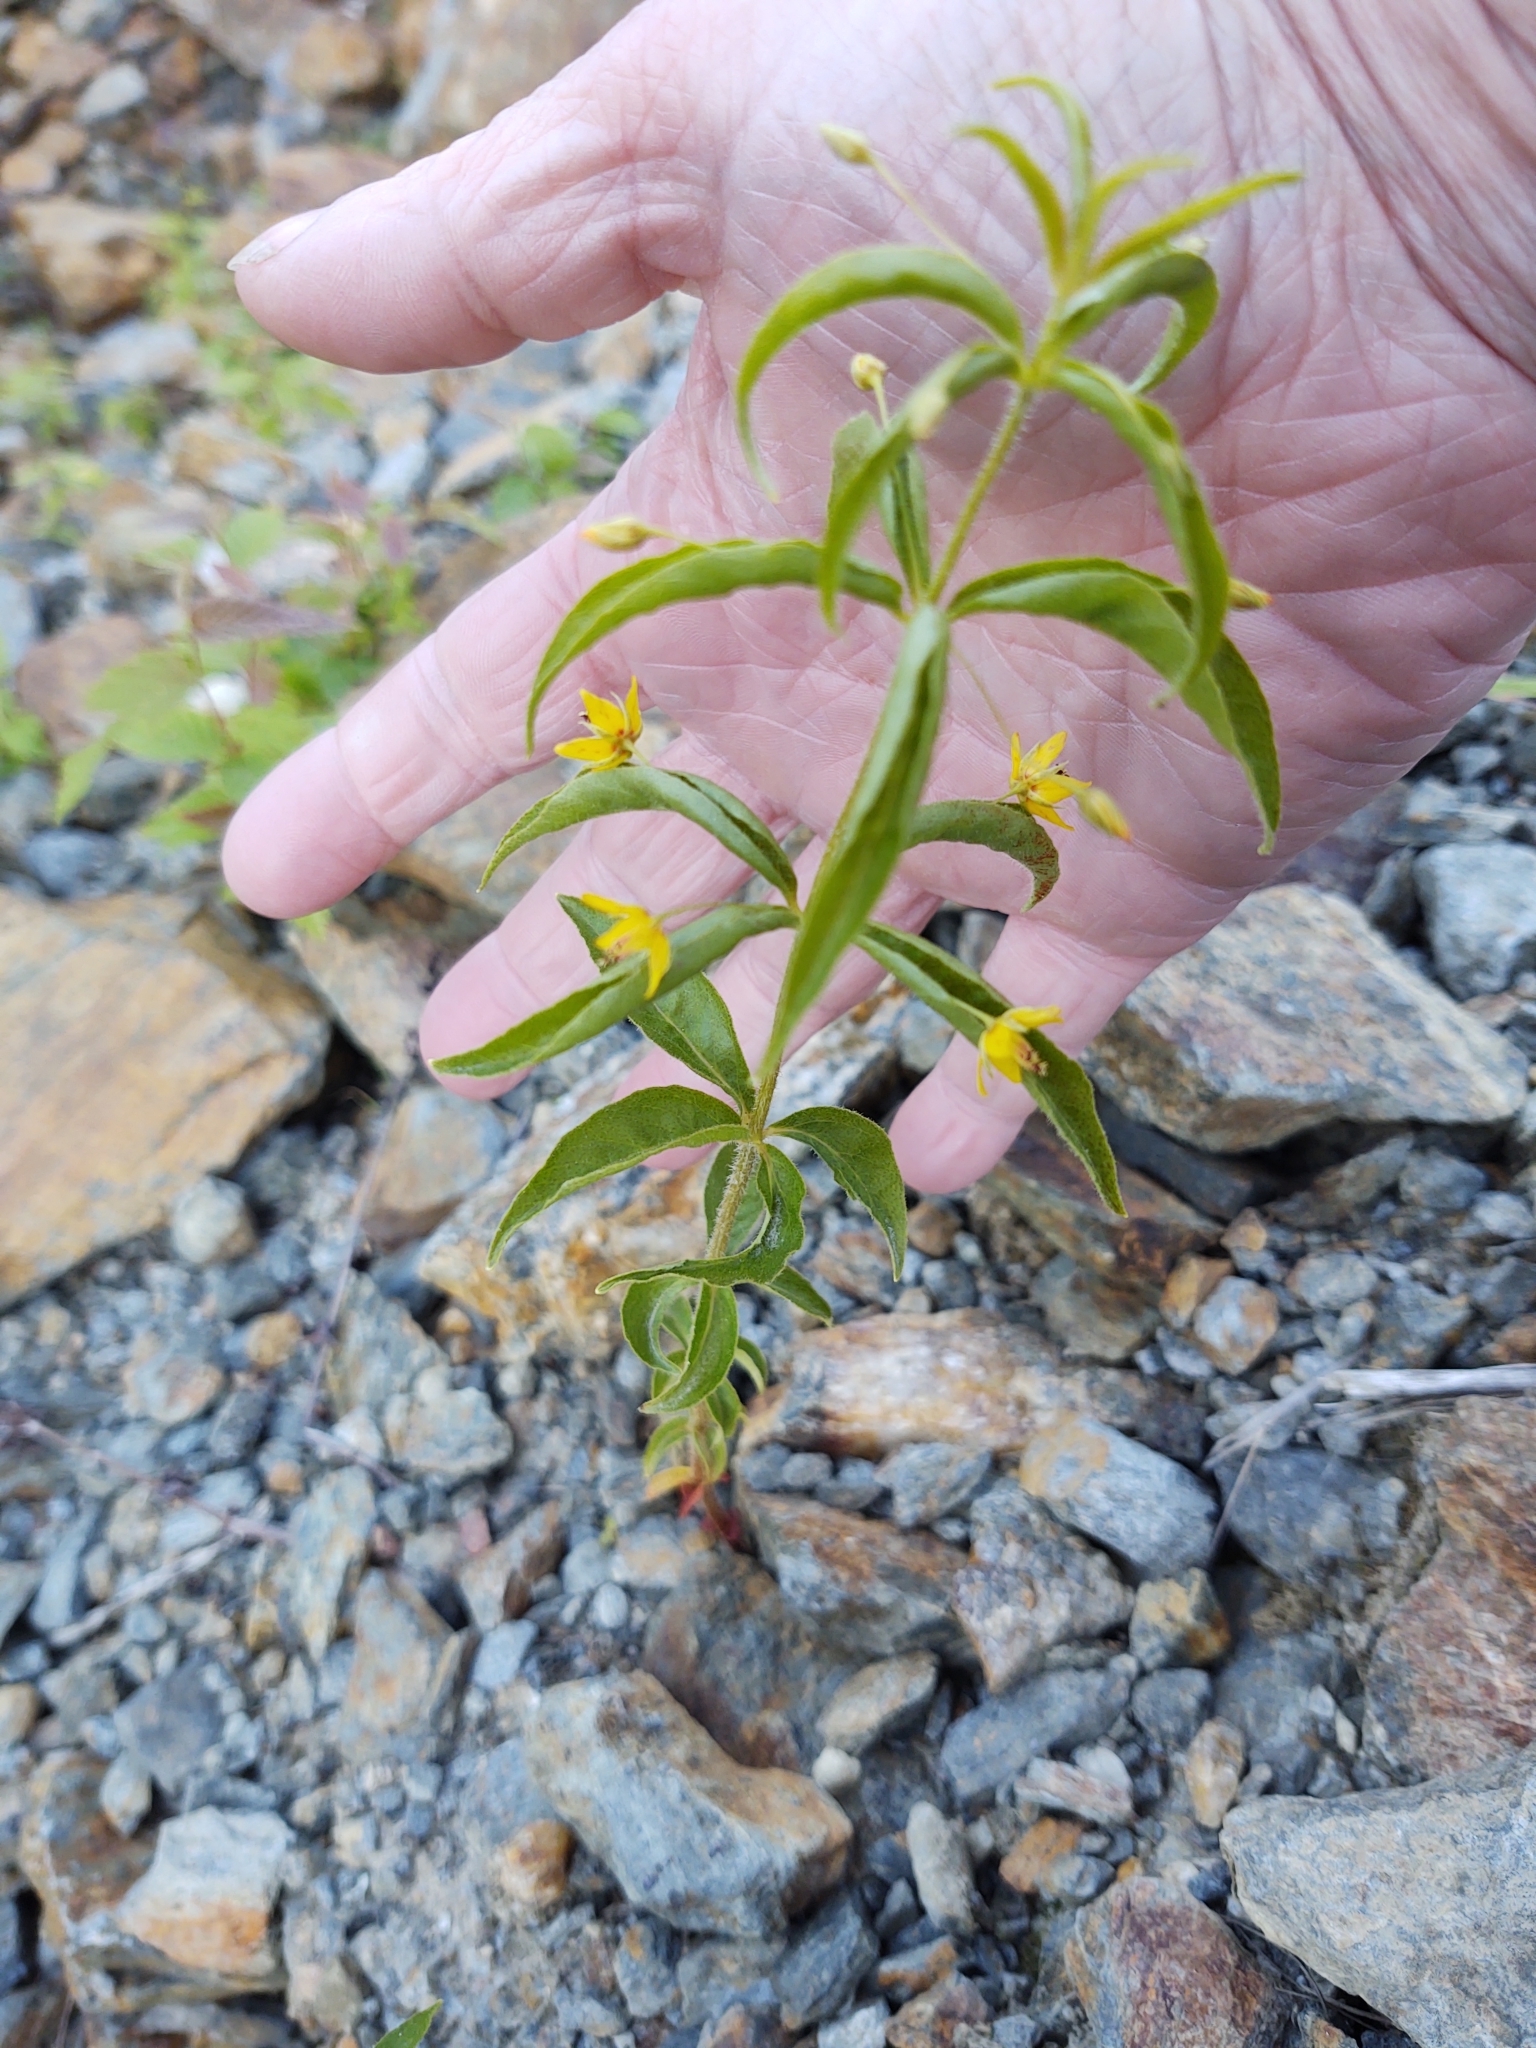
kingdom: Plantae
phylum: Tracheophyta
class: Magnoliopsida
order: Ericales
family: Primulaceae
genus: Lysimachia
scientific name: Lysimachia quadrifolia
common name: Whorled loosestrife
